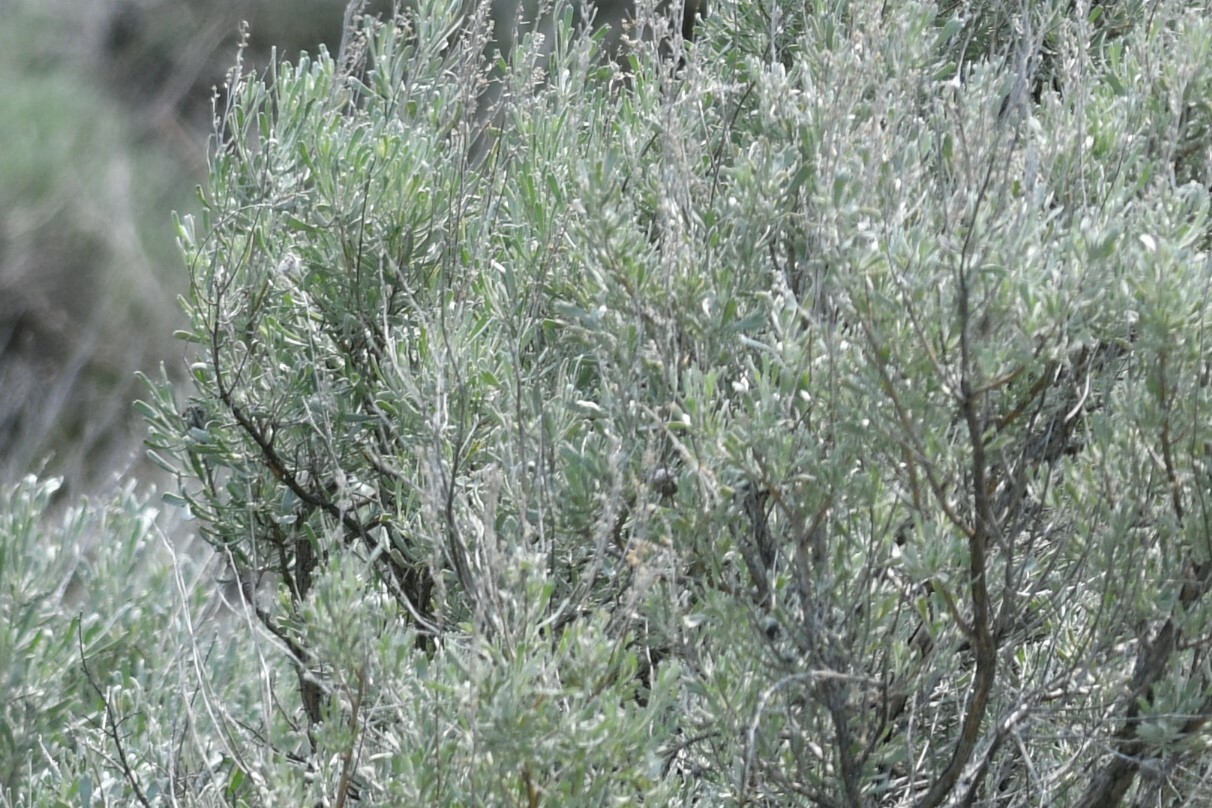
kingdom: Plantae
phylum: Tracheophyta
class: Magnoliopsida
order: Asterales
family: Asteraceae
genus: Artemisia
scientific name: Artemisia tridentata
